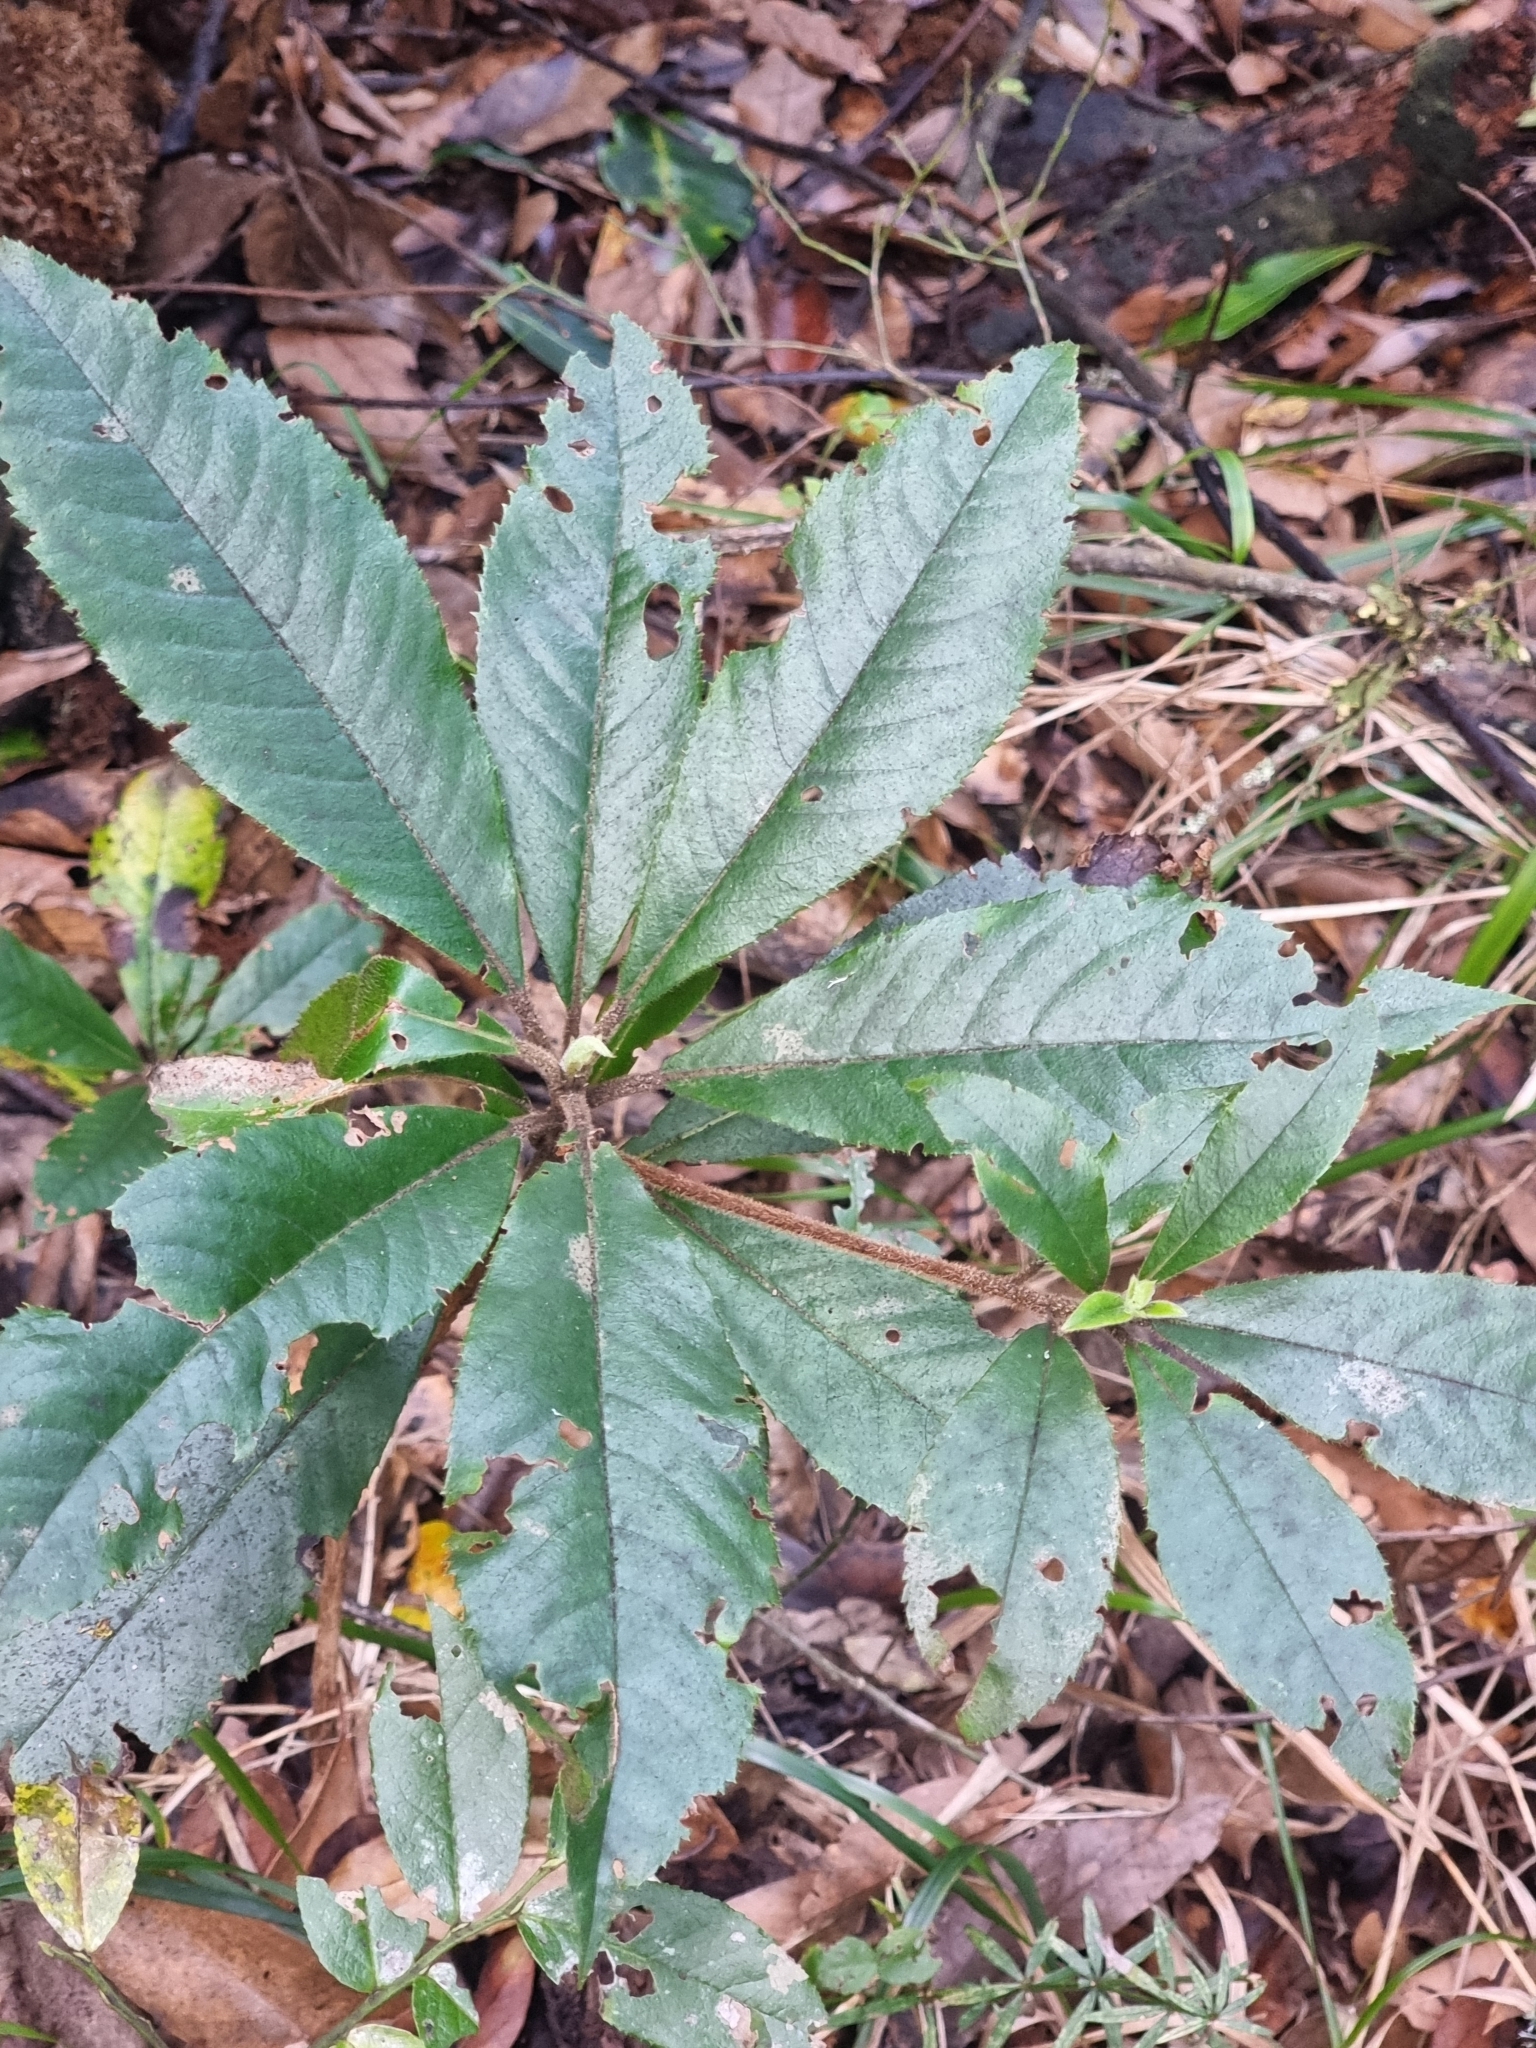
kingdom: Plantae
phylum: Tracheophyta
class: Magnoliopsida
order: Ericales
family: Clethraceae
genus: Clethra
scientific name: Clethra arborea
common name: Lily-of-the-valley-tree
